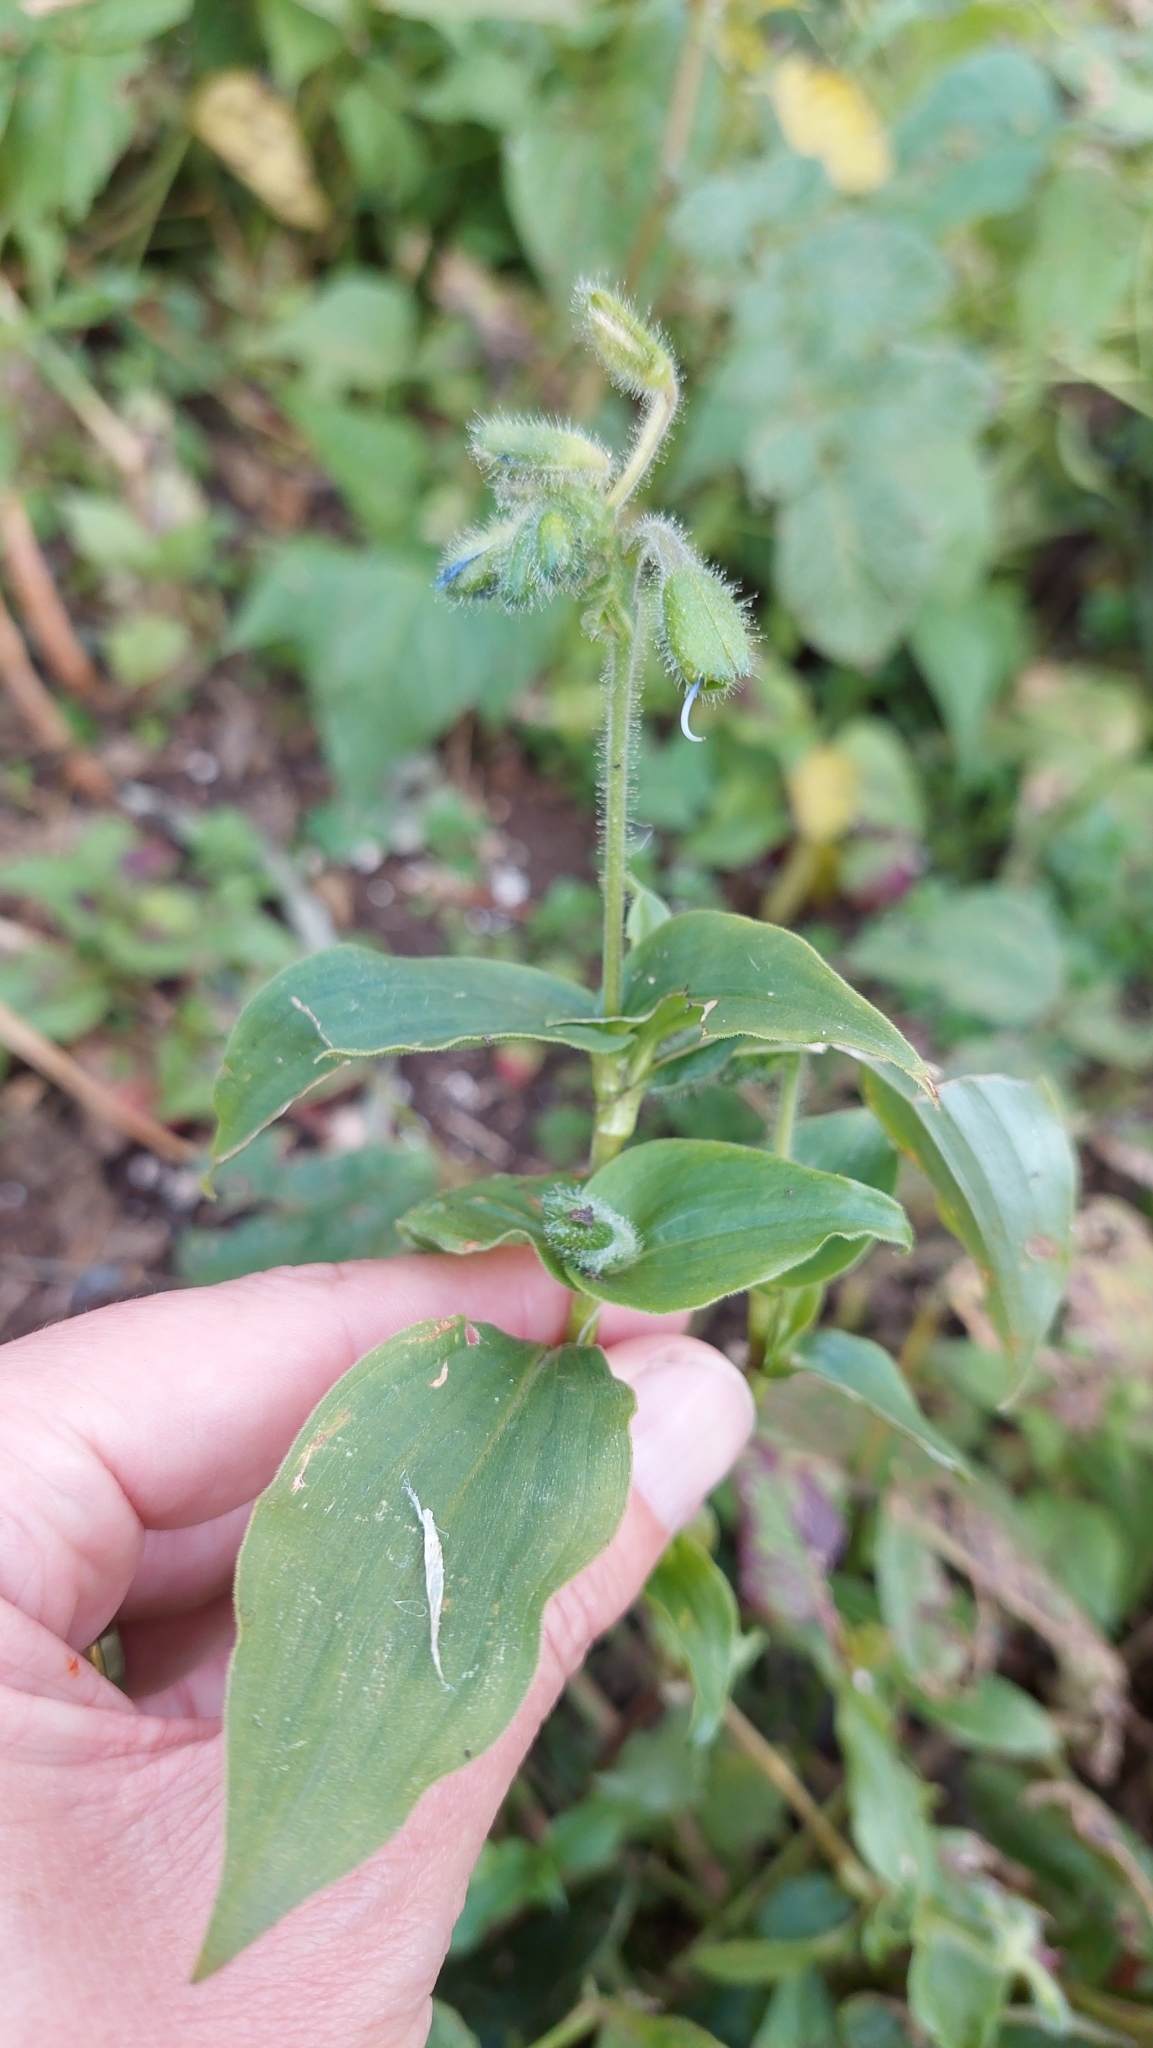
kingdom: Plantae
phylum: Tracheophyta
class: Liliopsida
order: Commelinales
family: Commelinaceae
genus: Tinantia
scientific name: Tinantia erecta
